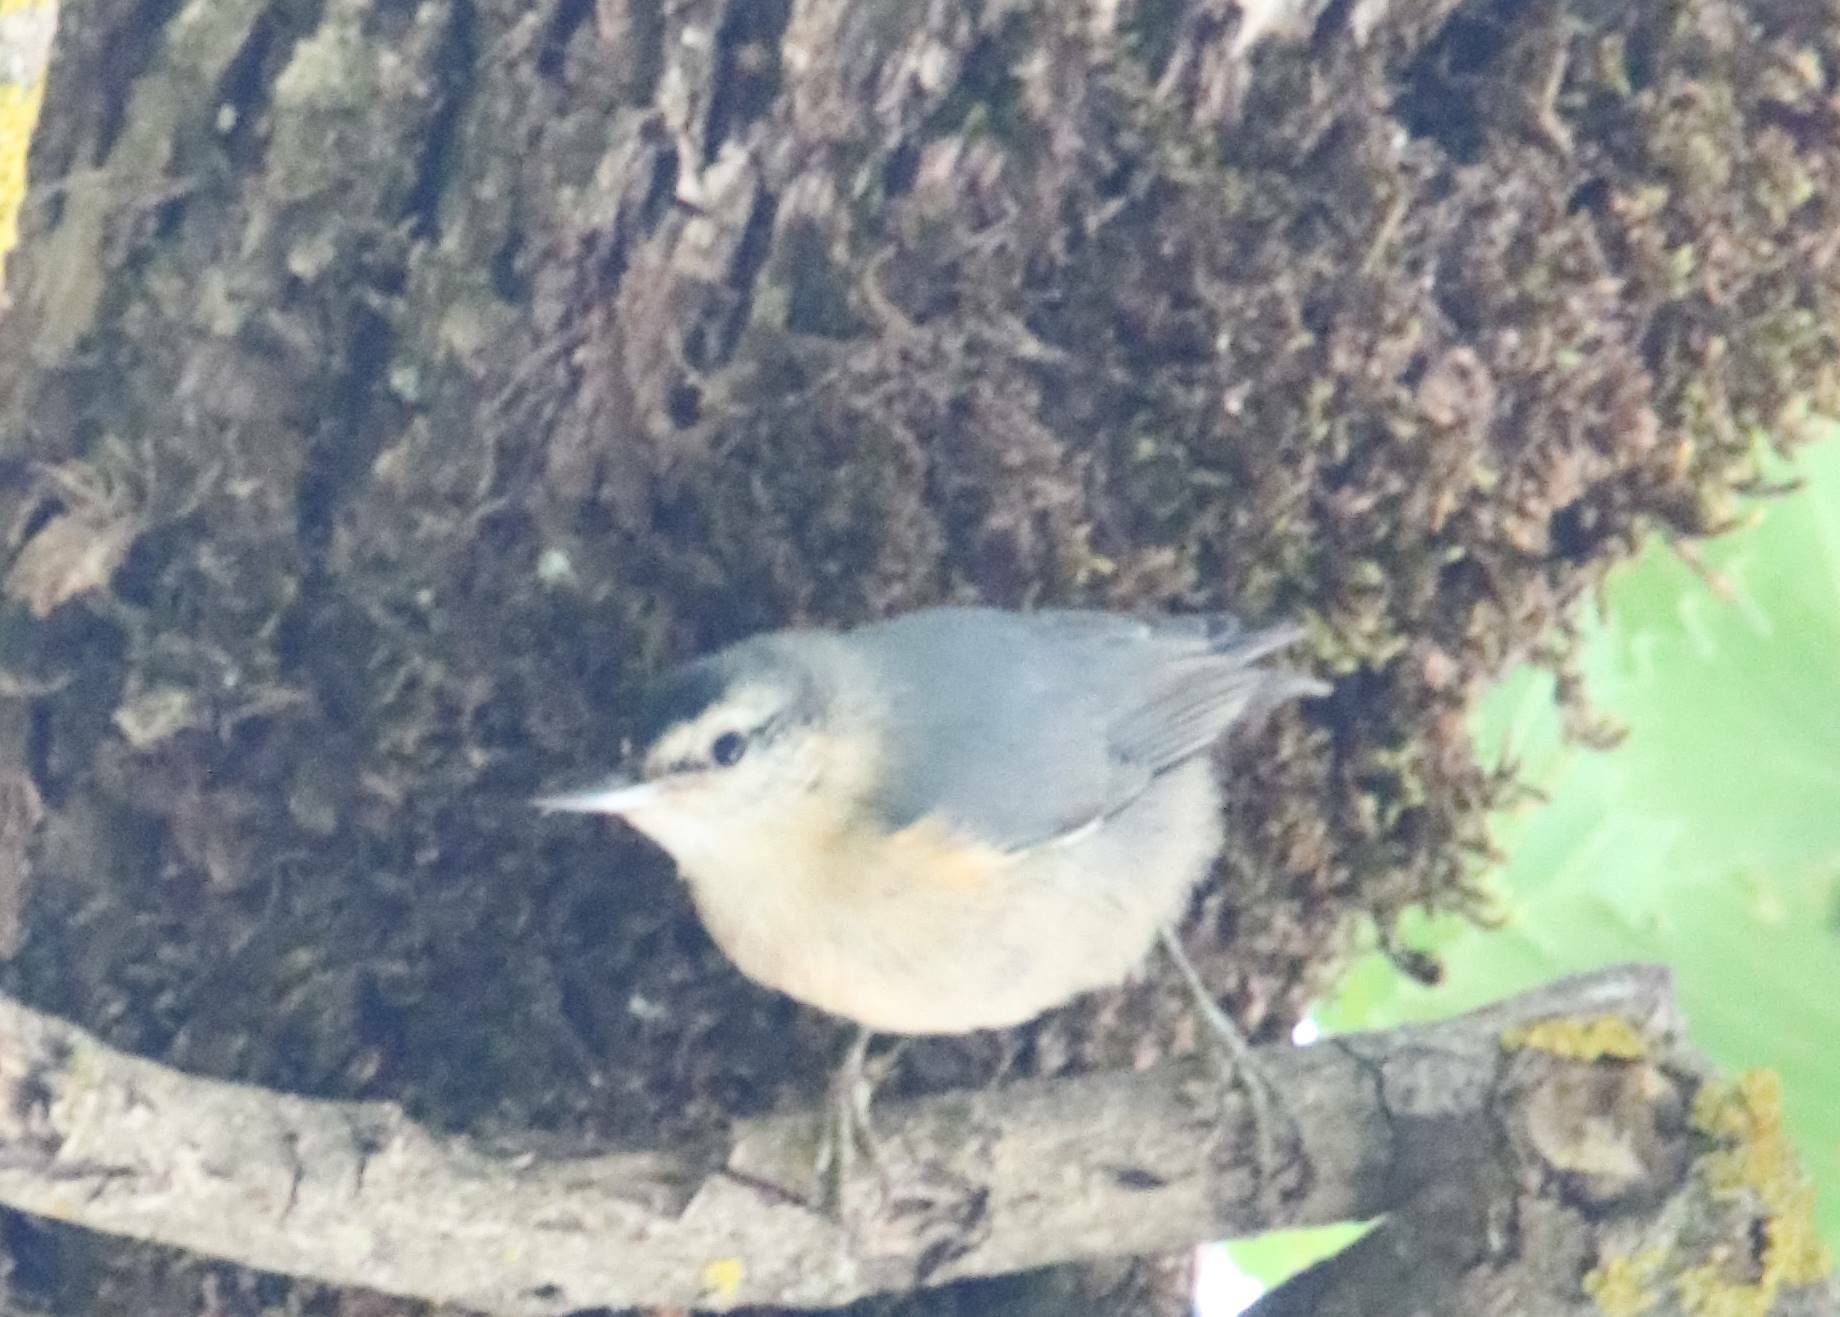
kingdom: Animalia
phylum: Chordata
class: Aves
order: Passeriformes
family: Sittidae
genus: Sitta
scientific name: Sitta ledanti
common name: Algerian nuthatch
